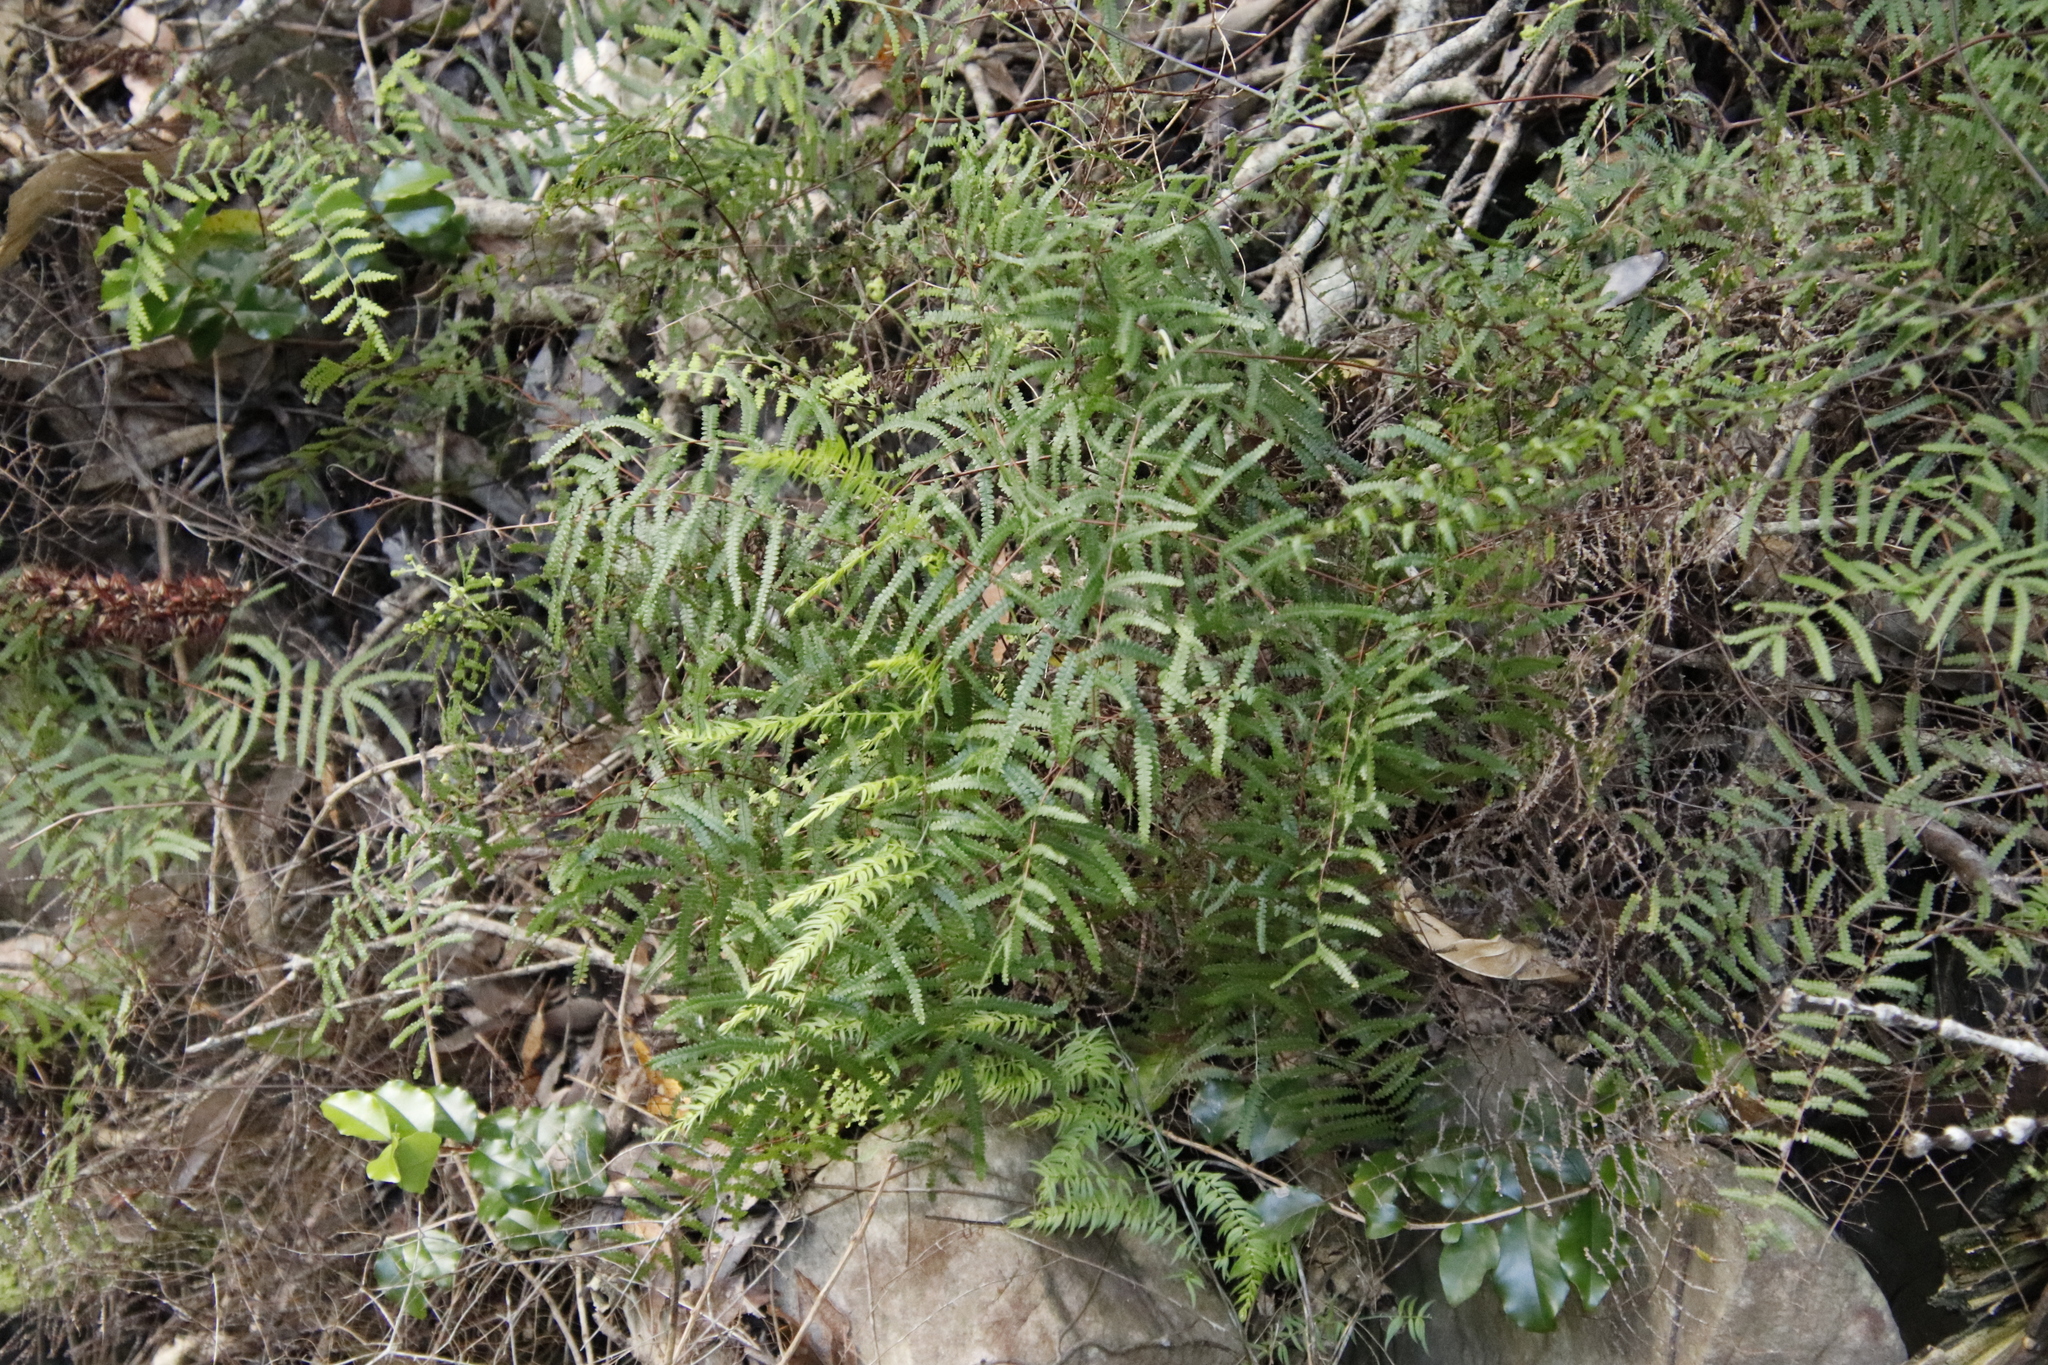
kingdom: Plantae
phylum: Tracheophyta
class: Polypodiopsida
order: Gleicheniales
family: Gleicheniaceae
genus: Gleichenia
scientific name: Gleichenia polypodioides
